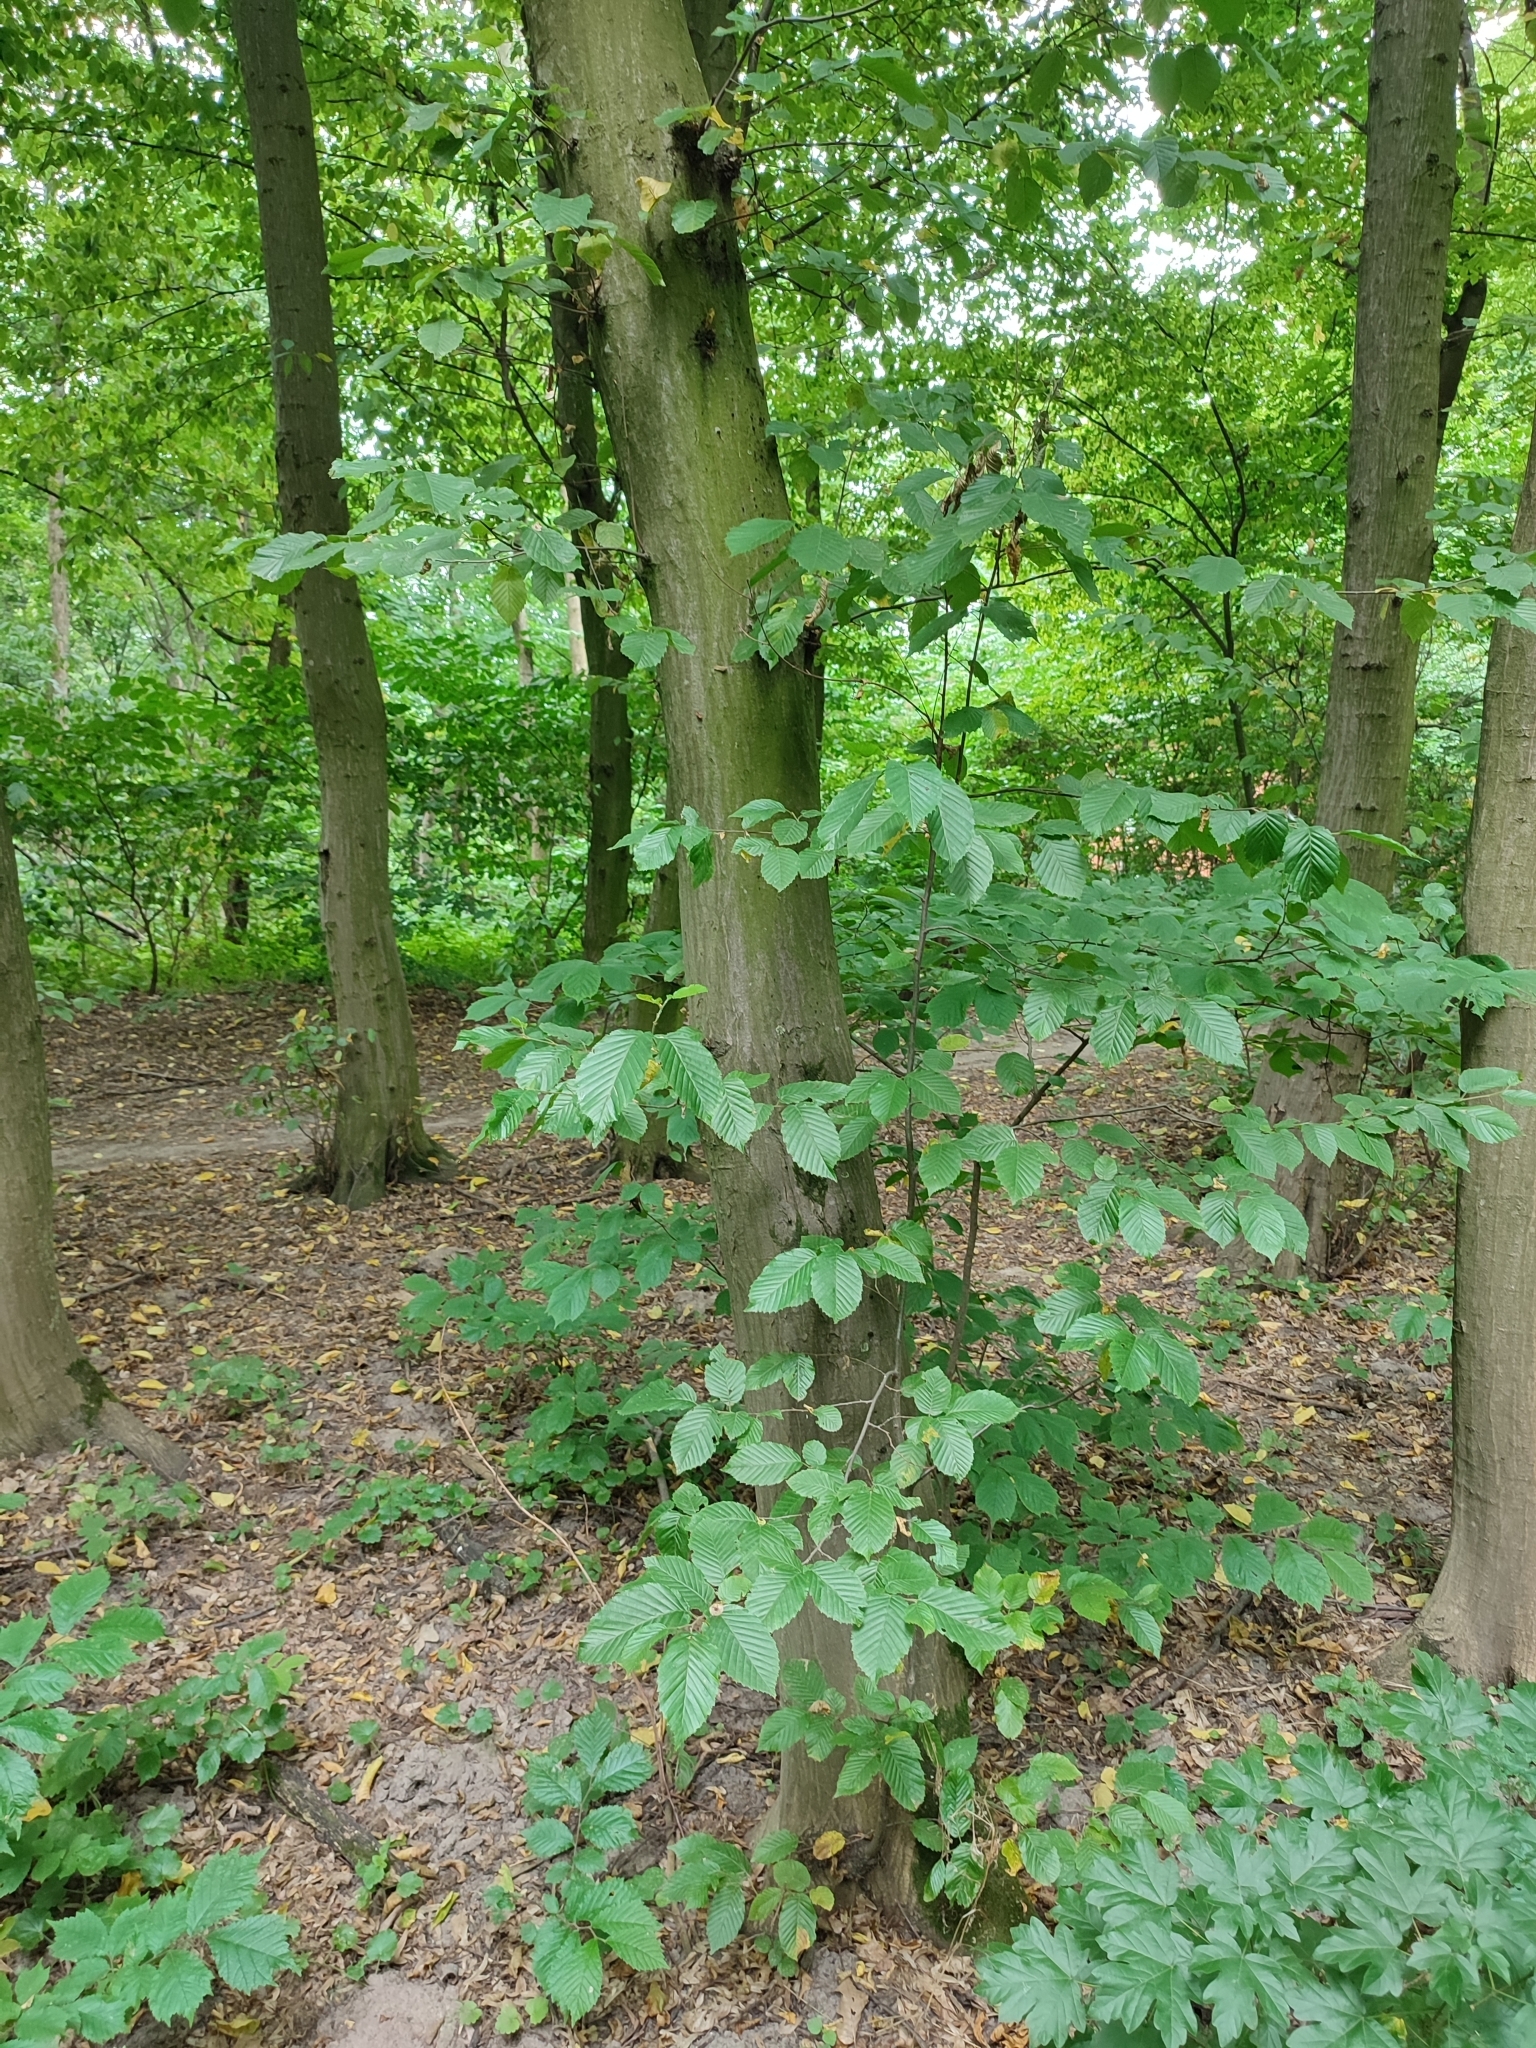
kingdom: Plantae
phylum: Tracheophyta
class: Magnoliopsida
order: Fagales
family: Betulaceae
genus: Carpinus
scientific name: Carpinus betulus
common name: Hornbeam
